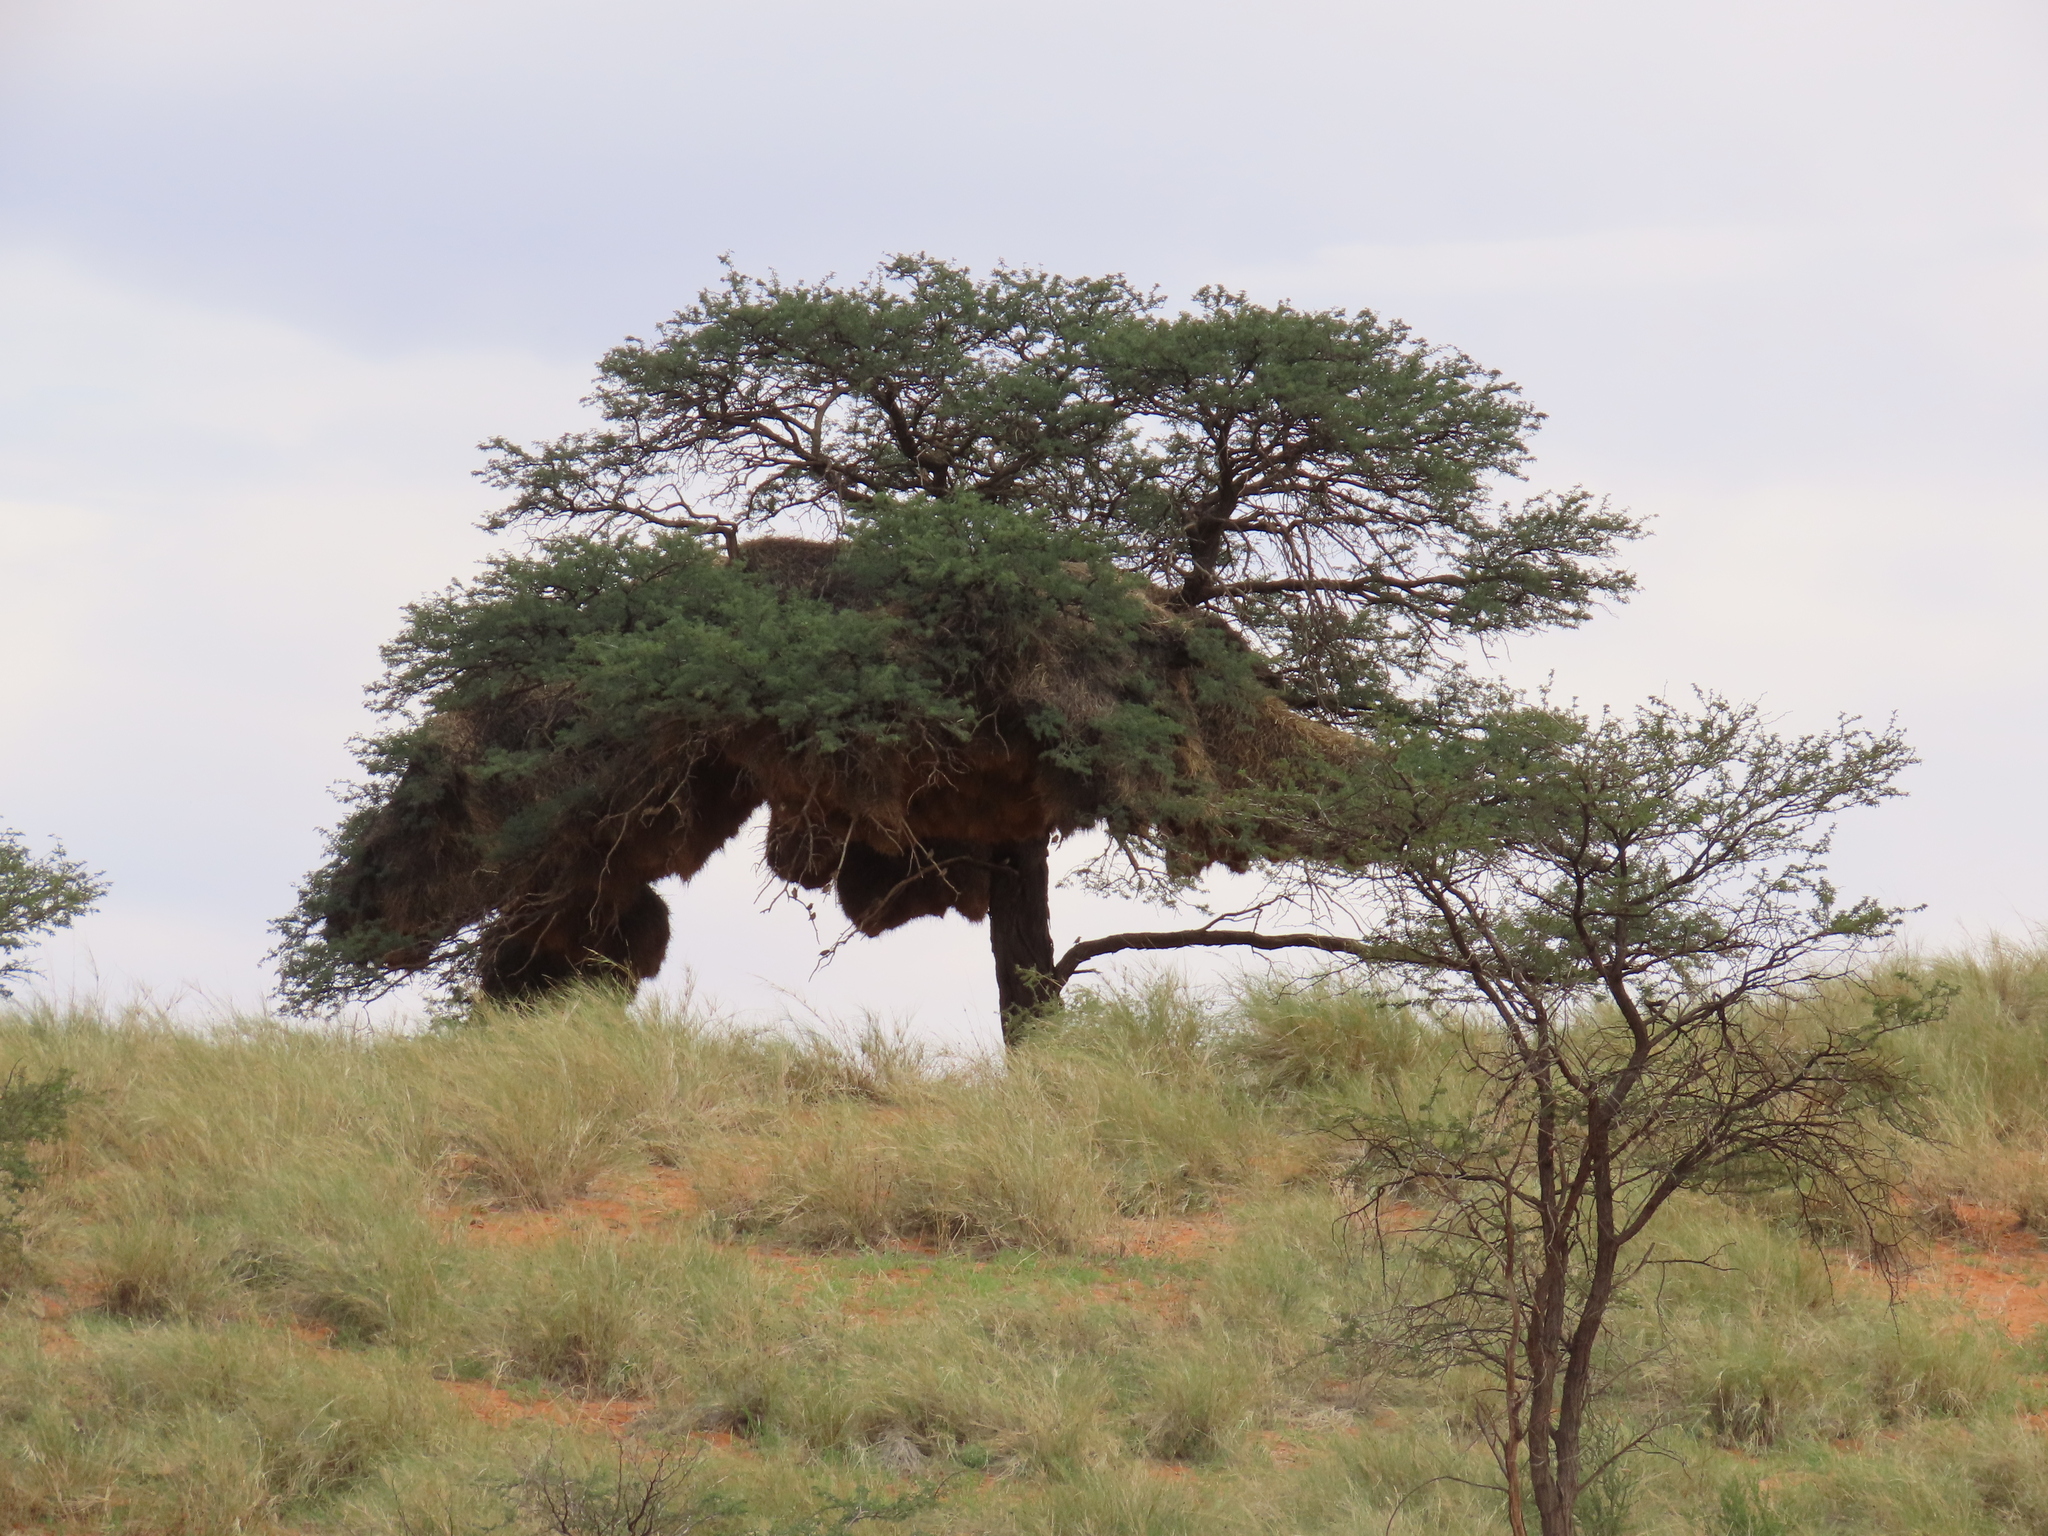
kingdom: Animalia
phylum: Chordata
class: Aves
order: Passeriformes
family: Passeridae
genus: Philetairus
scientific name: Philetairus socius
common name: Sociable weaver
